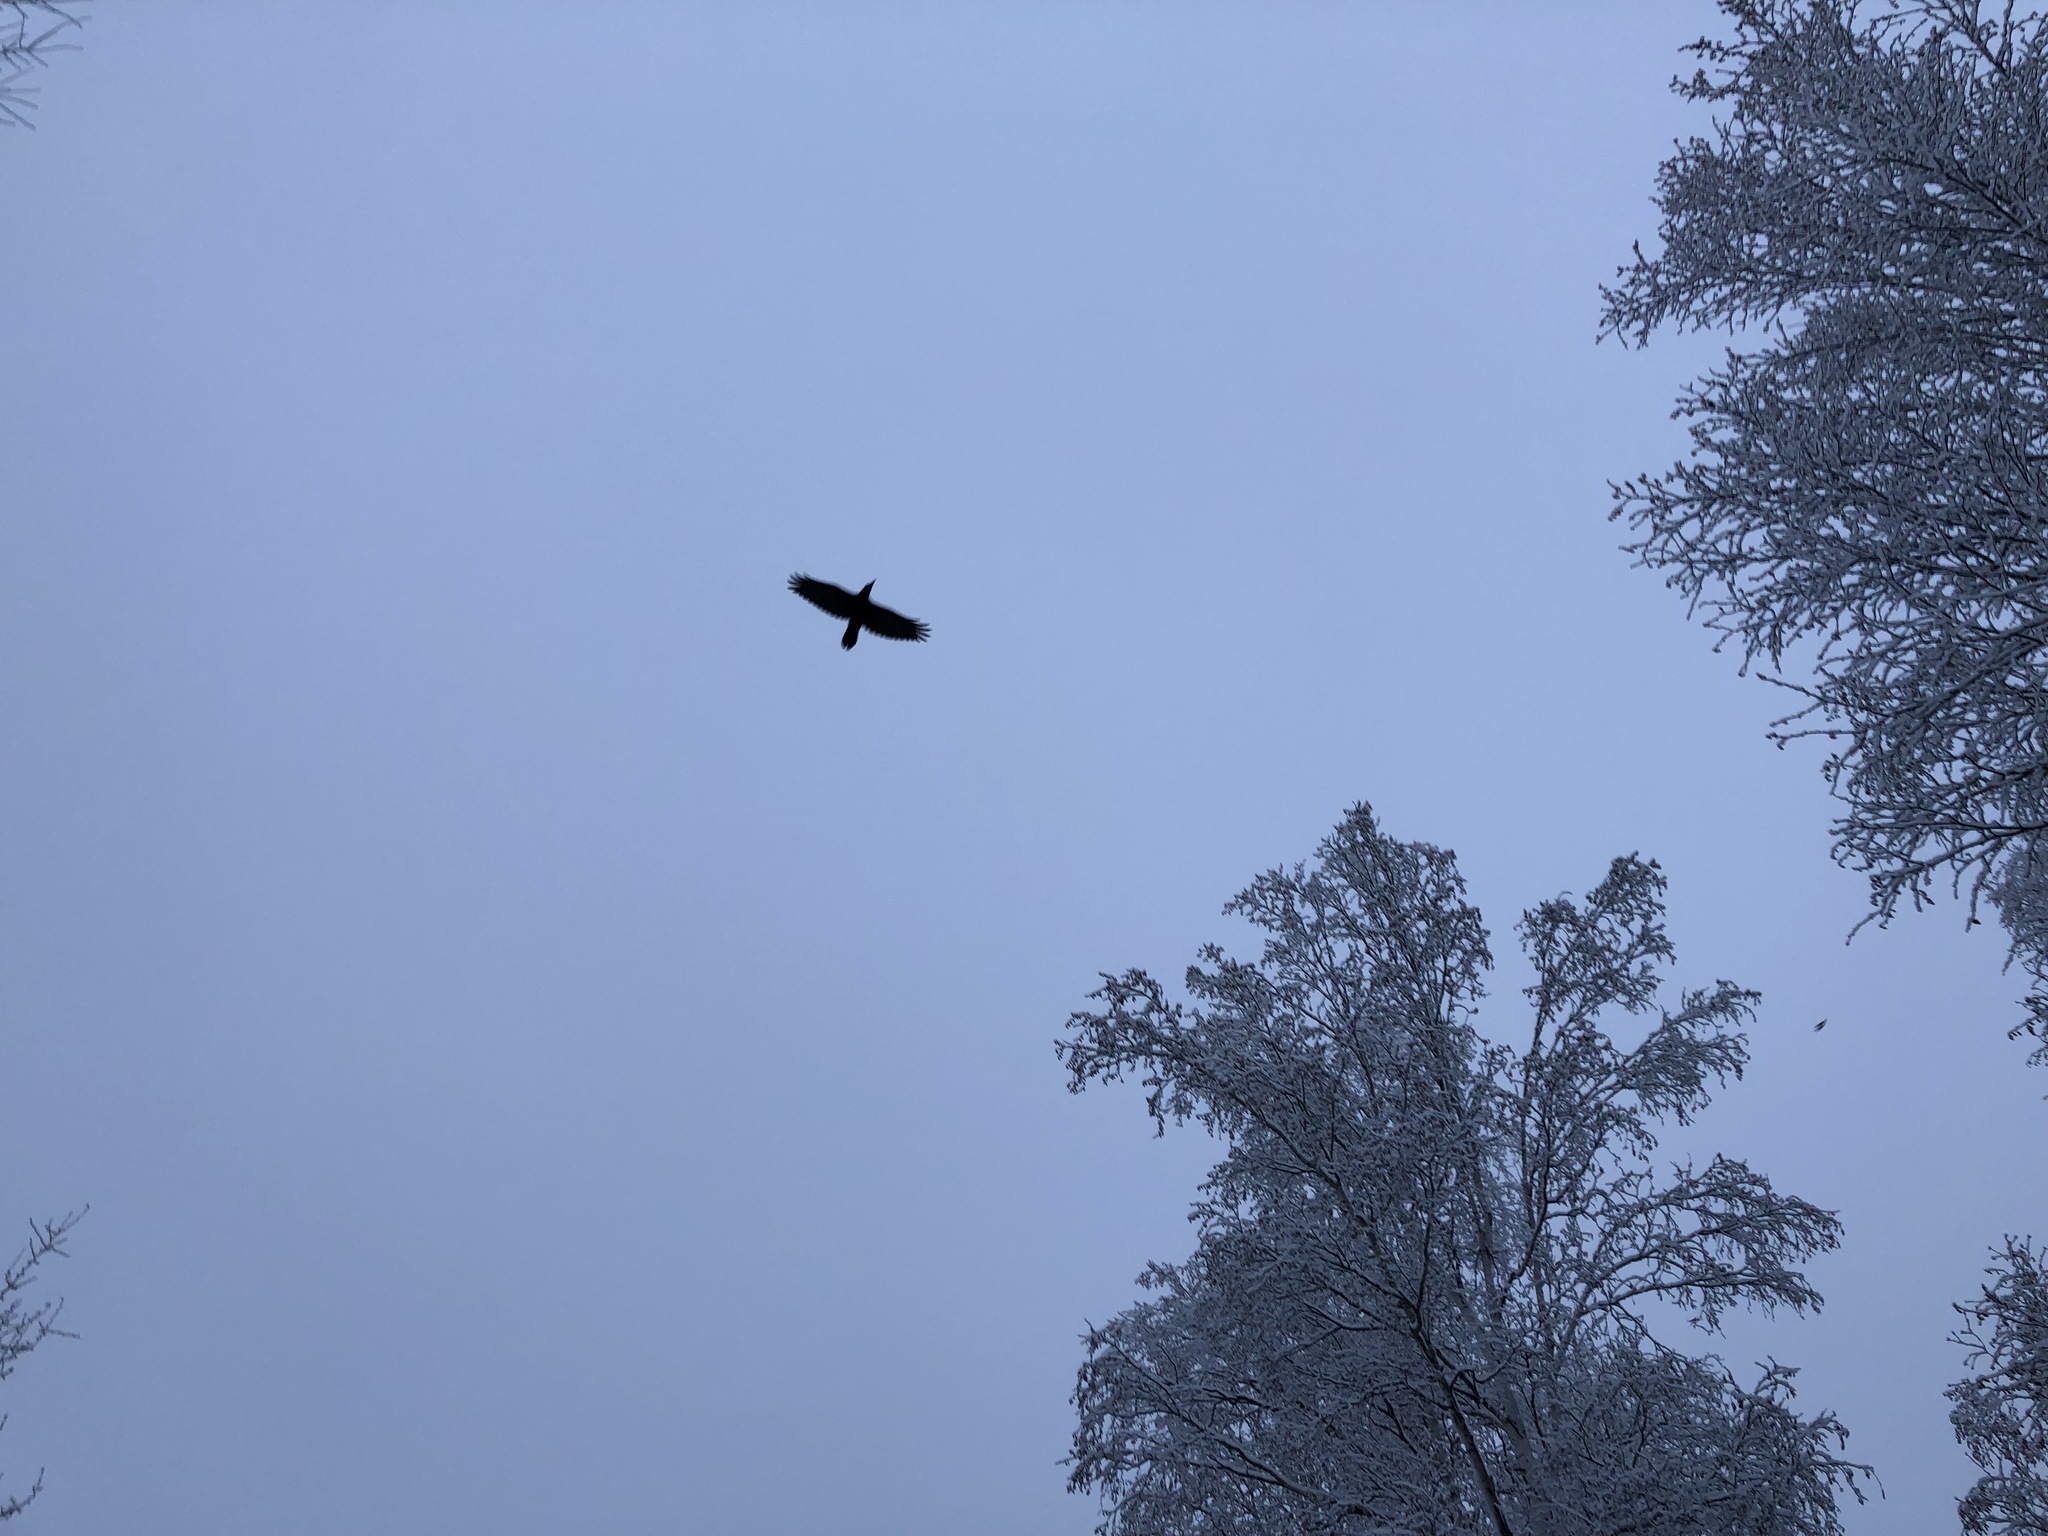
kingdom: Animalia
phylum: Chordata
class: Aves
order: Passeriformes
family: Corvidae
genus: Corvus
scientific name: Corvus corax
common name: Common raven
